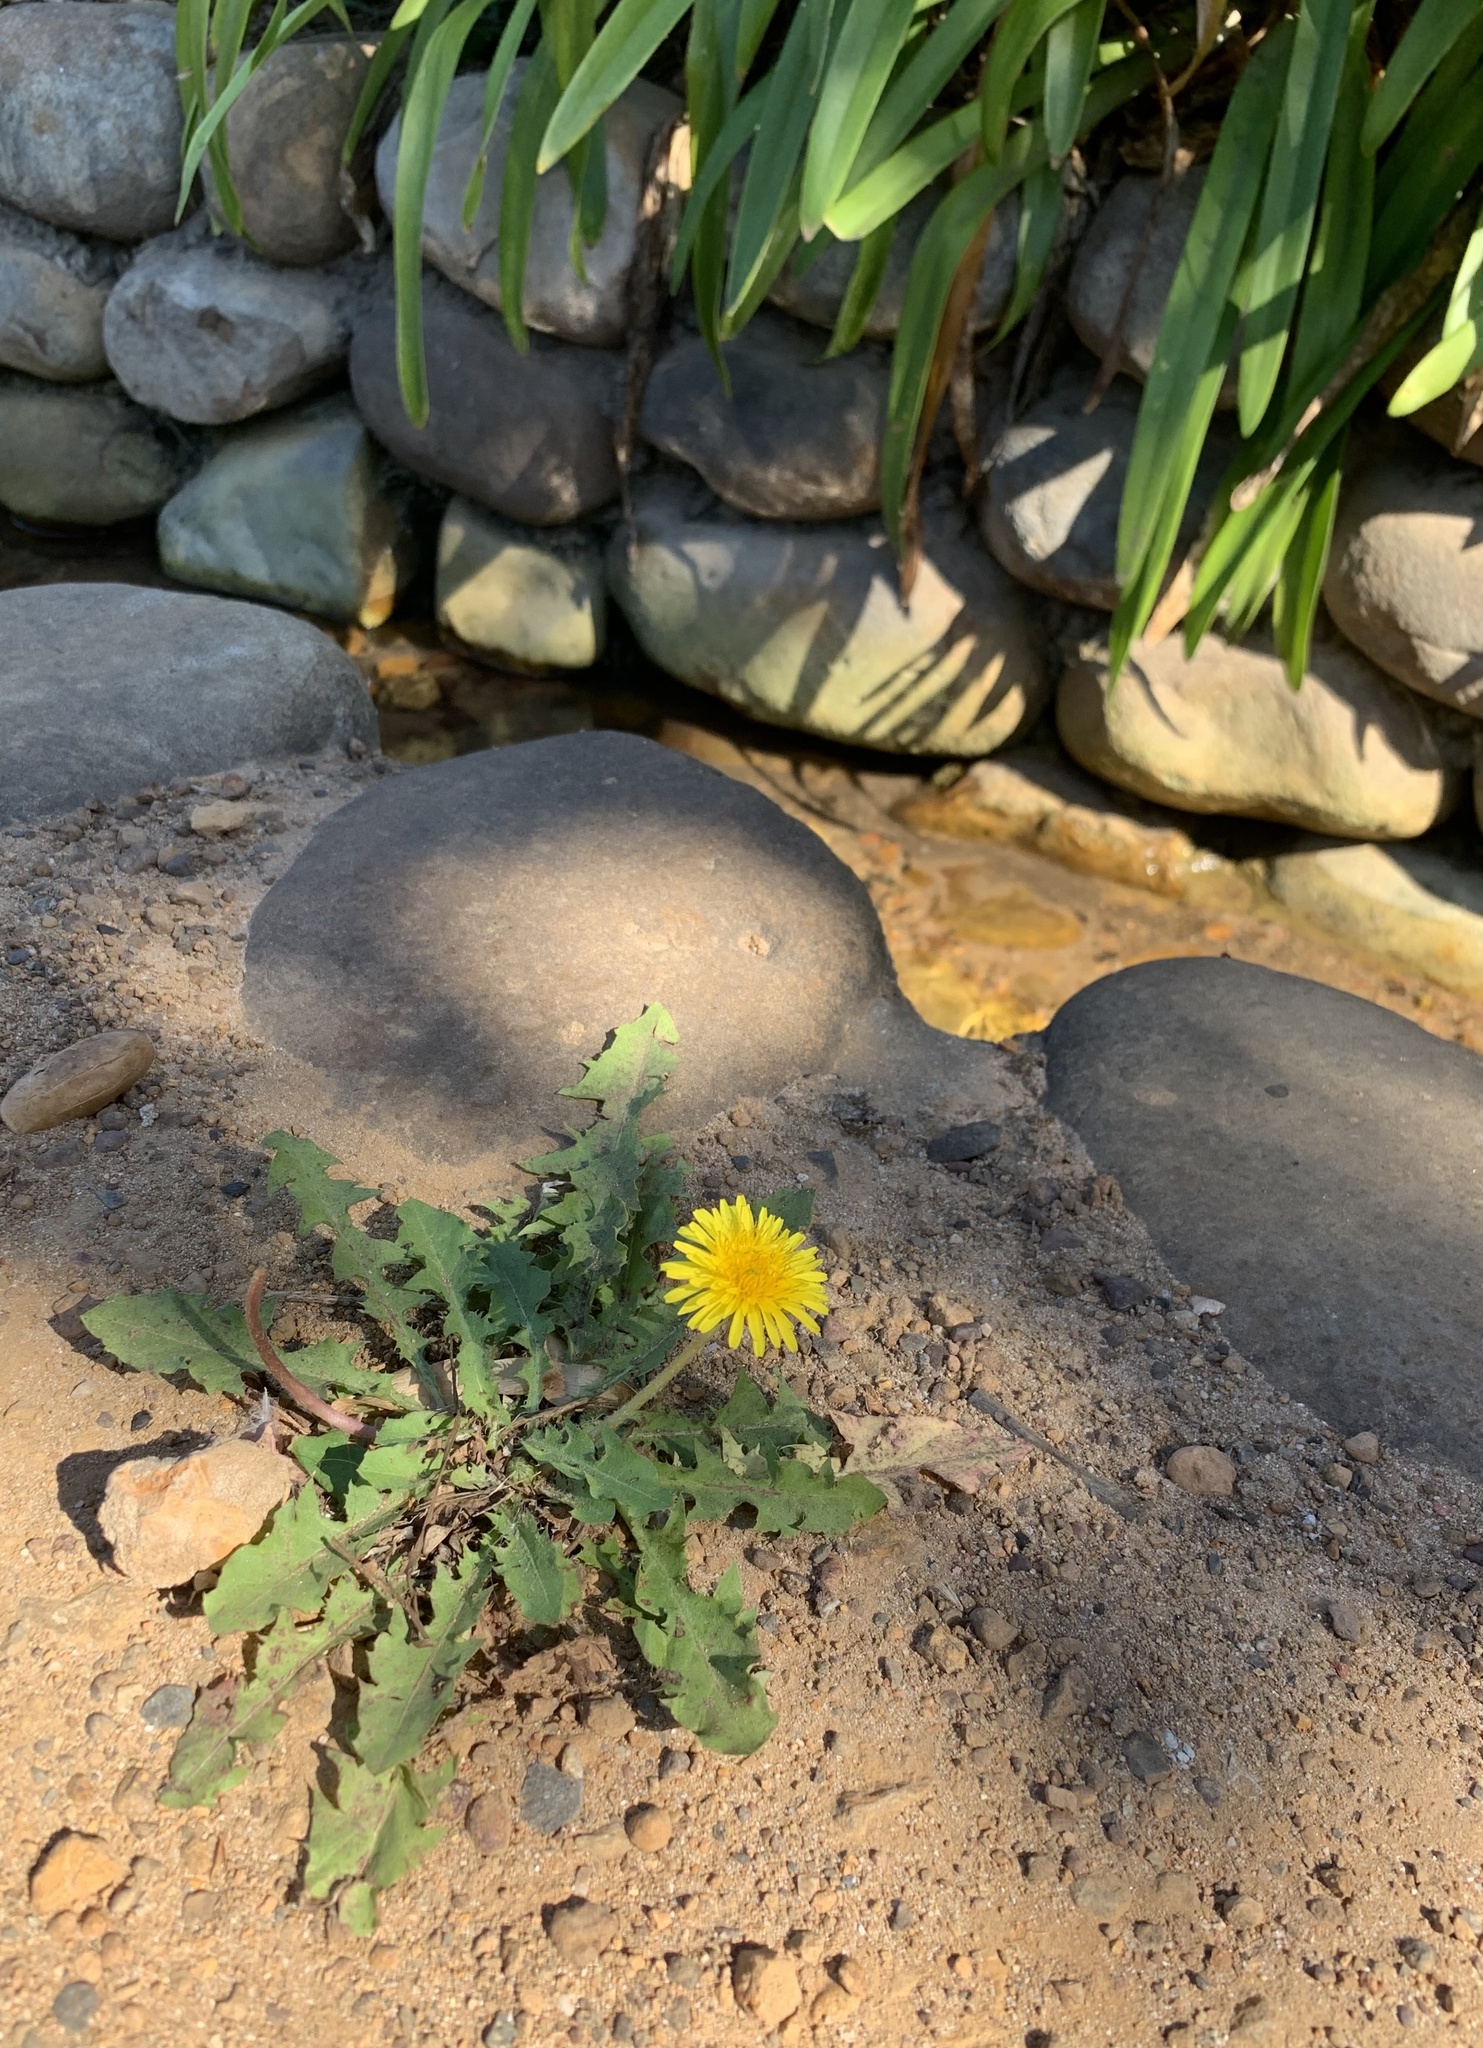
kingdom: Plantae
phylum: Tracheophyta
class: Magnoliopsida
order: Asterales
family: Asteraceae
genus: Taraxacum
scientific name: Taraxacum officinale
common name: Common dandelion
